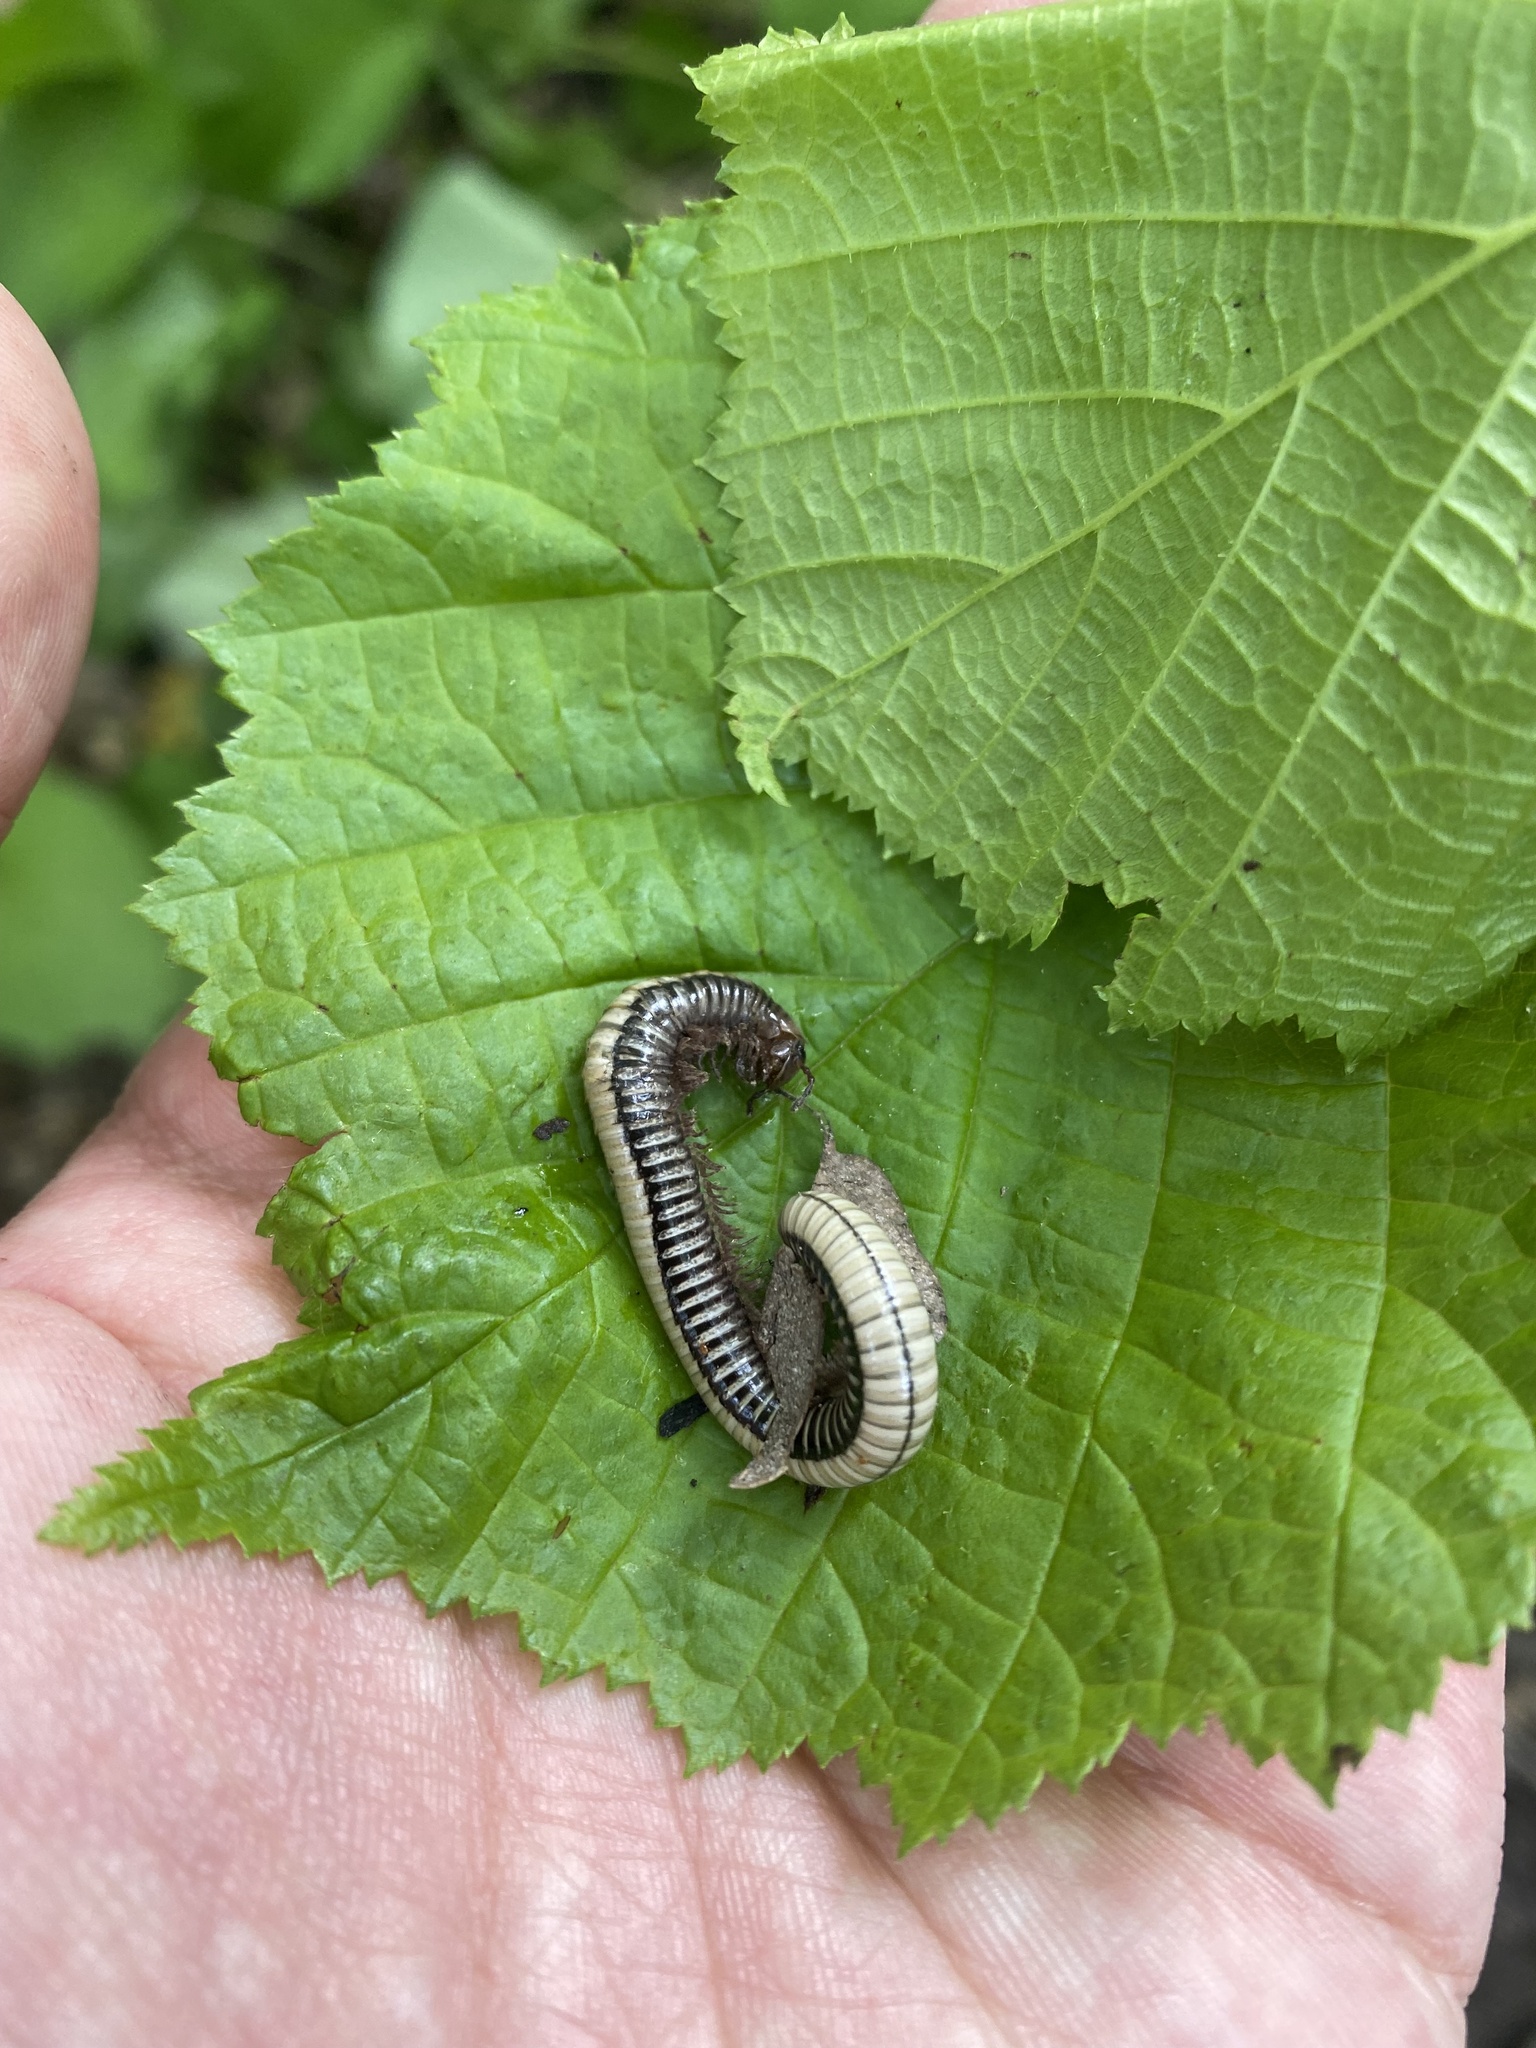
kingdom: Animalia
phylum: Arthropoda
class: Diplopoda
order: Julida
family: Julidae
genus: Pachyiulus
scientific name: Pachyiulus krivolutskyi
